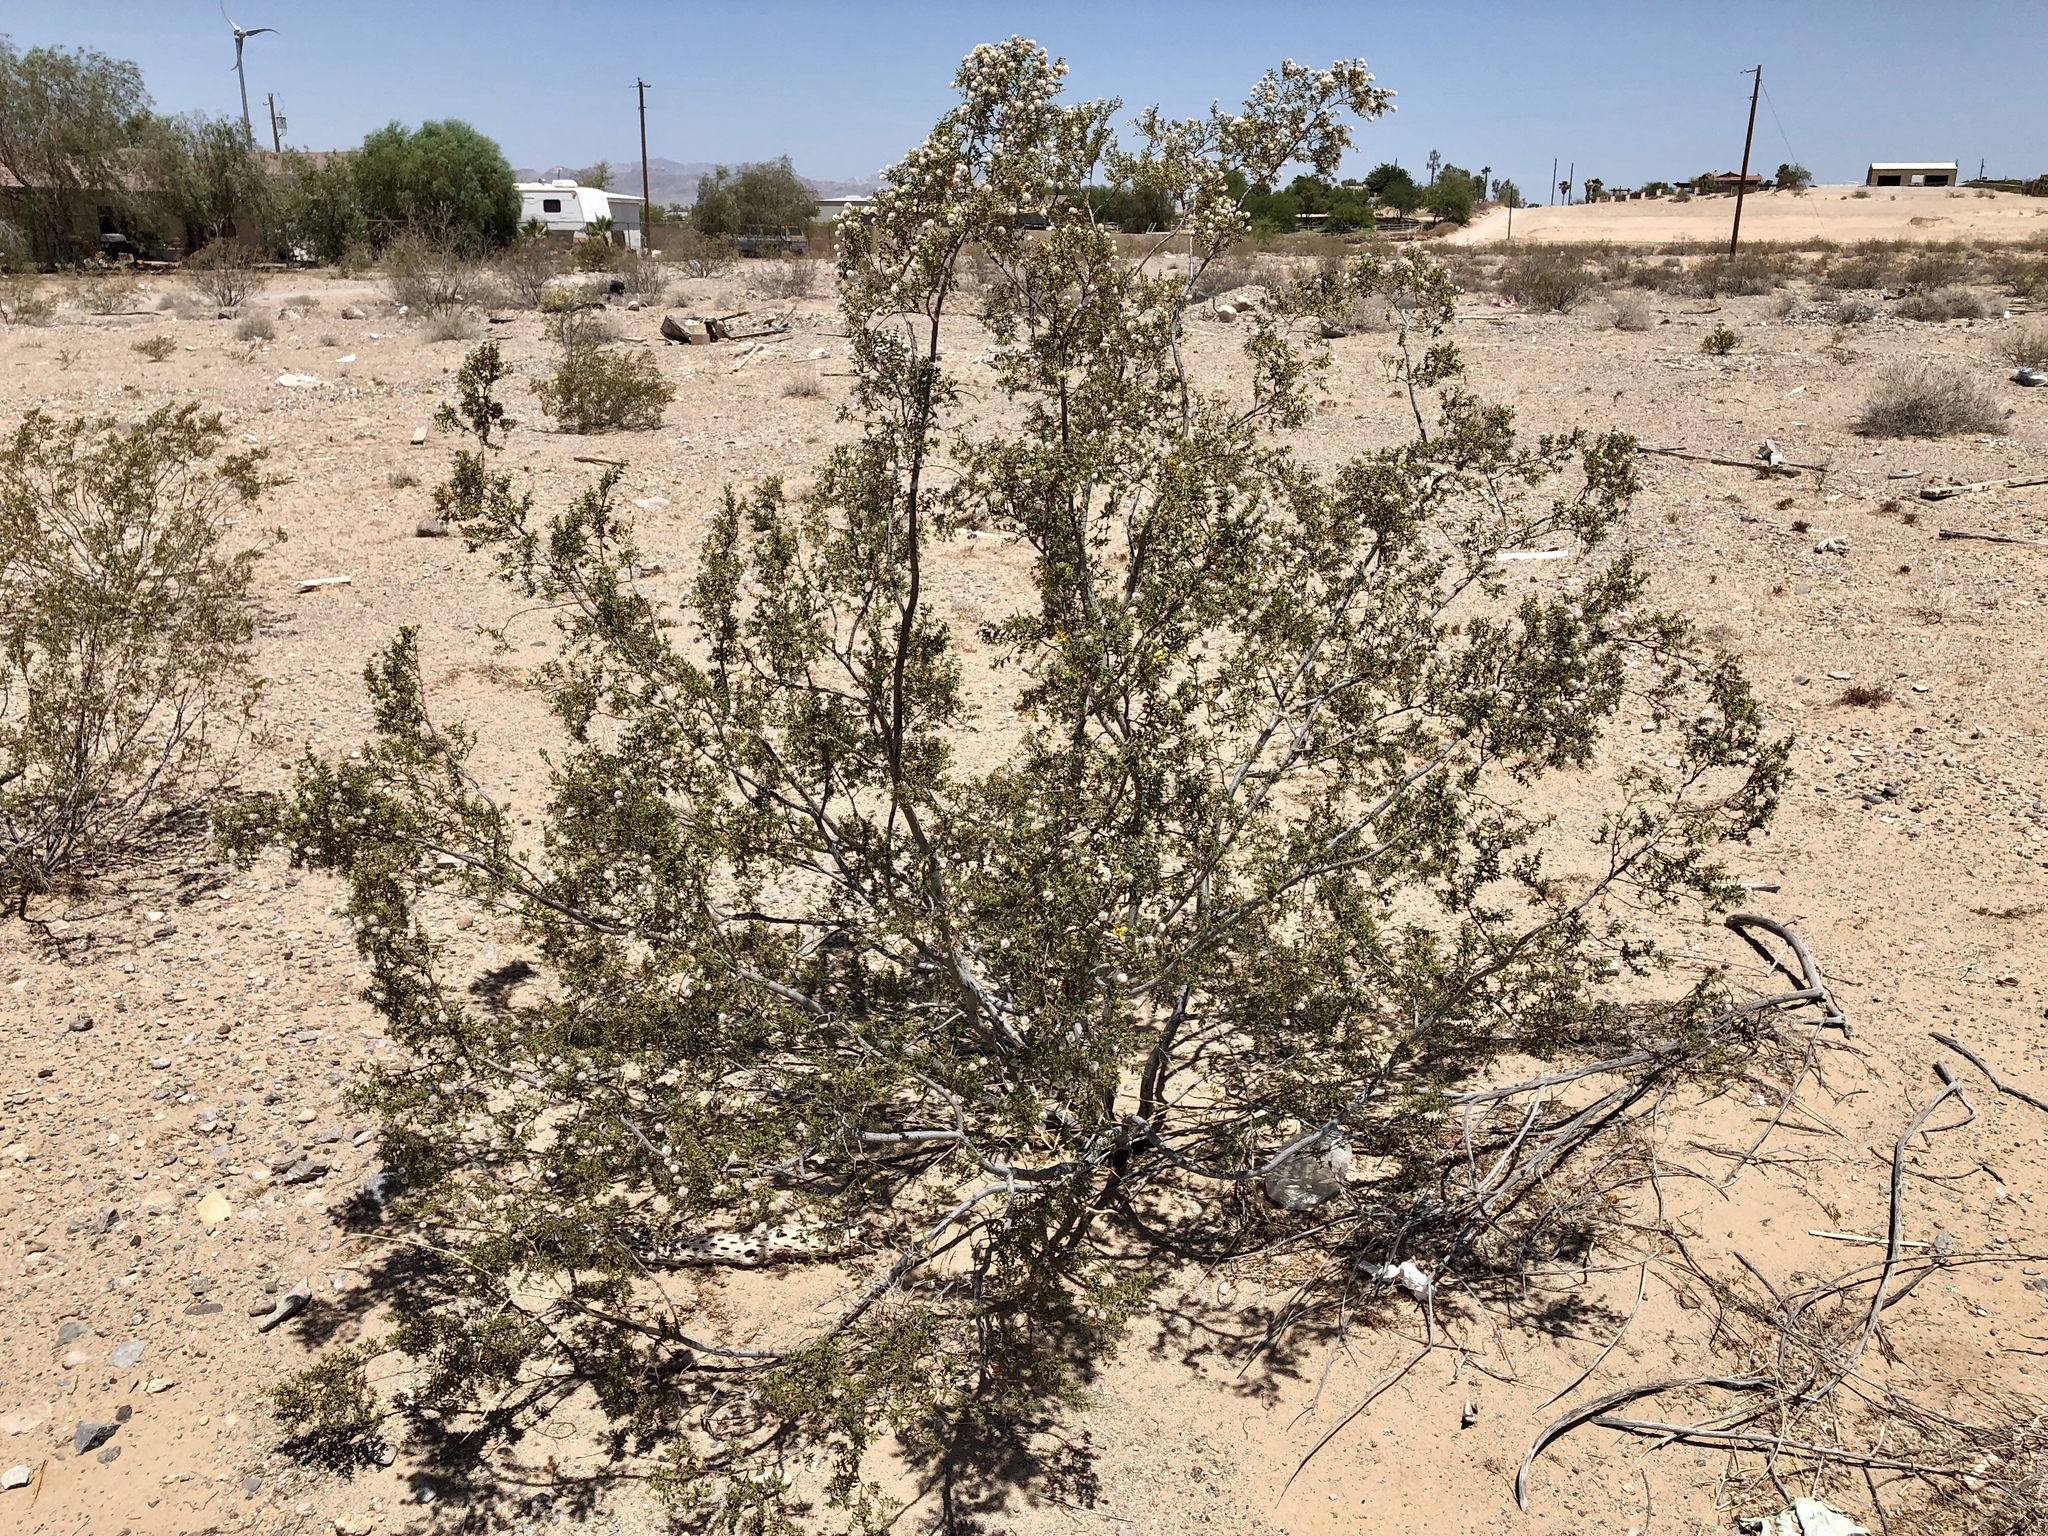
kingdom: Plantae
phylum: Tracheophyta
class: Magnoliopsida
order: Zygophyllales
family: Zygophyllaceae
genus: Larrea
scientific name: Larrea tridentata
